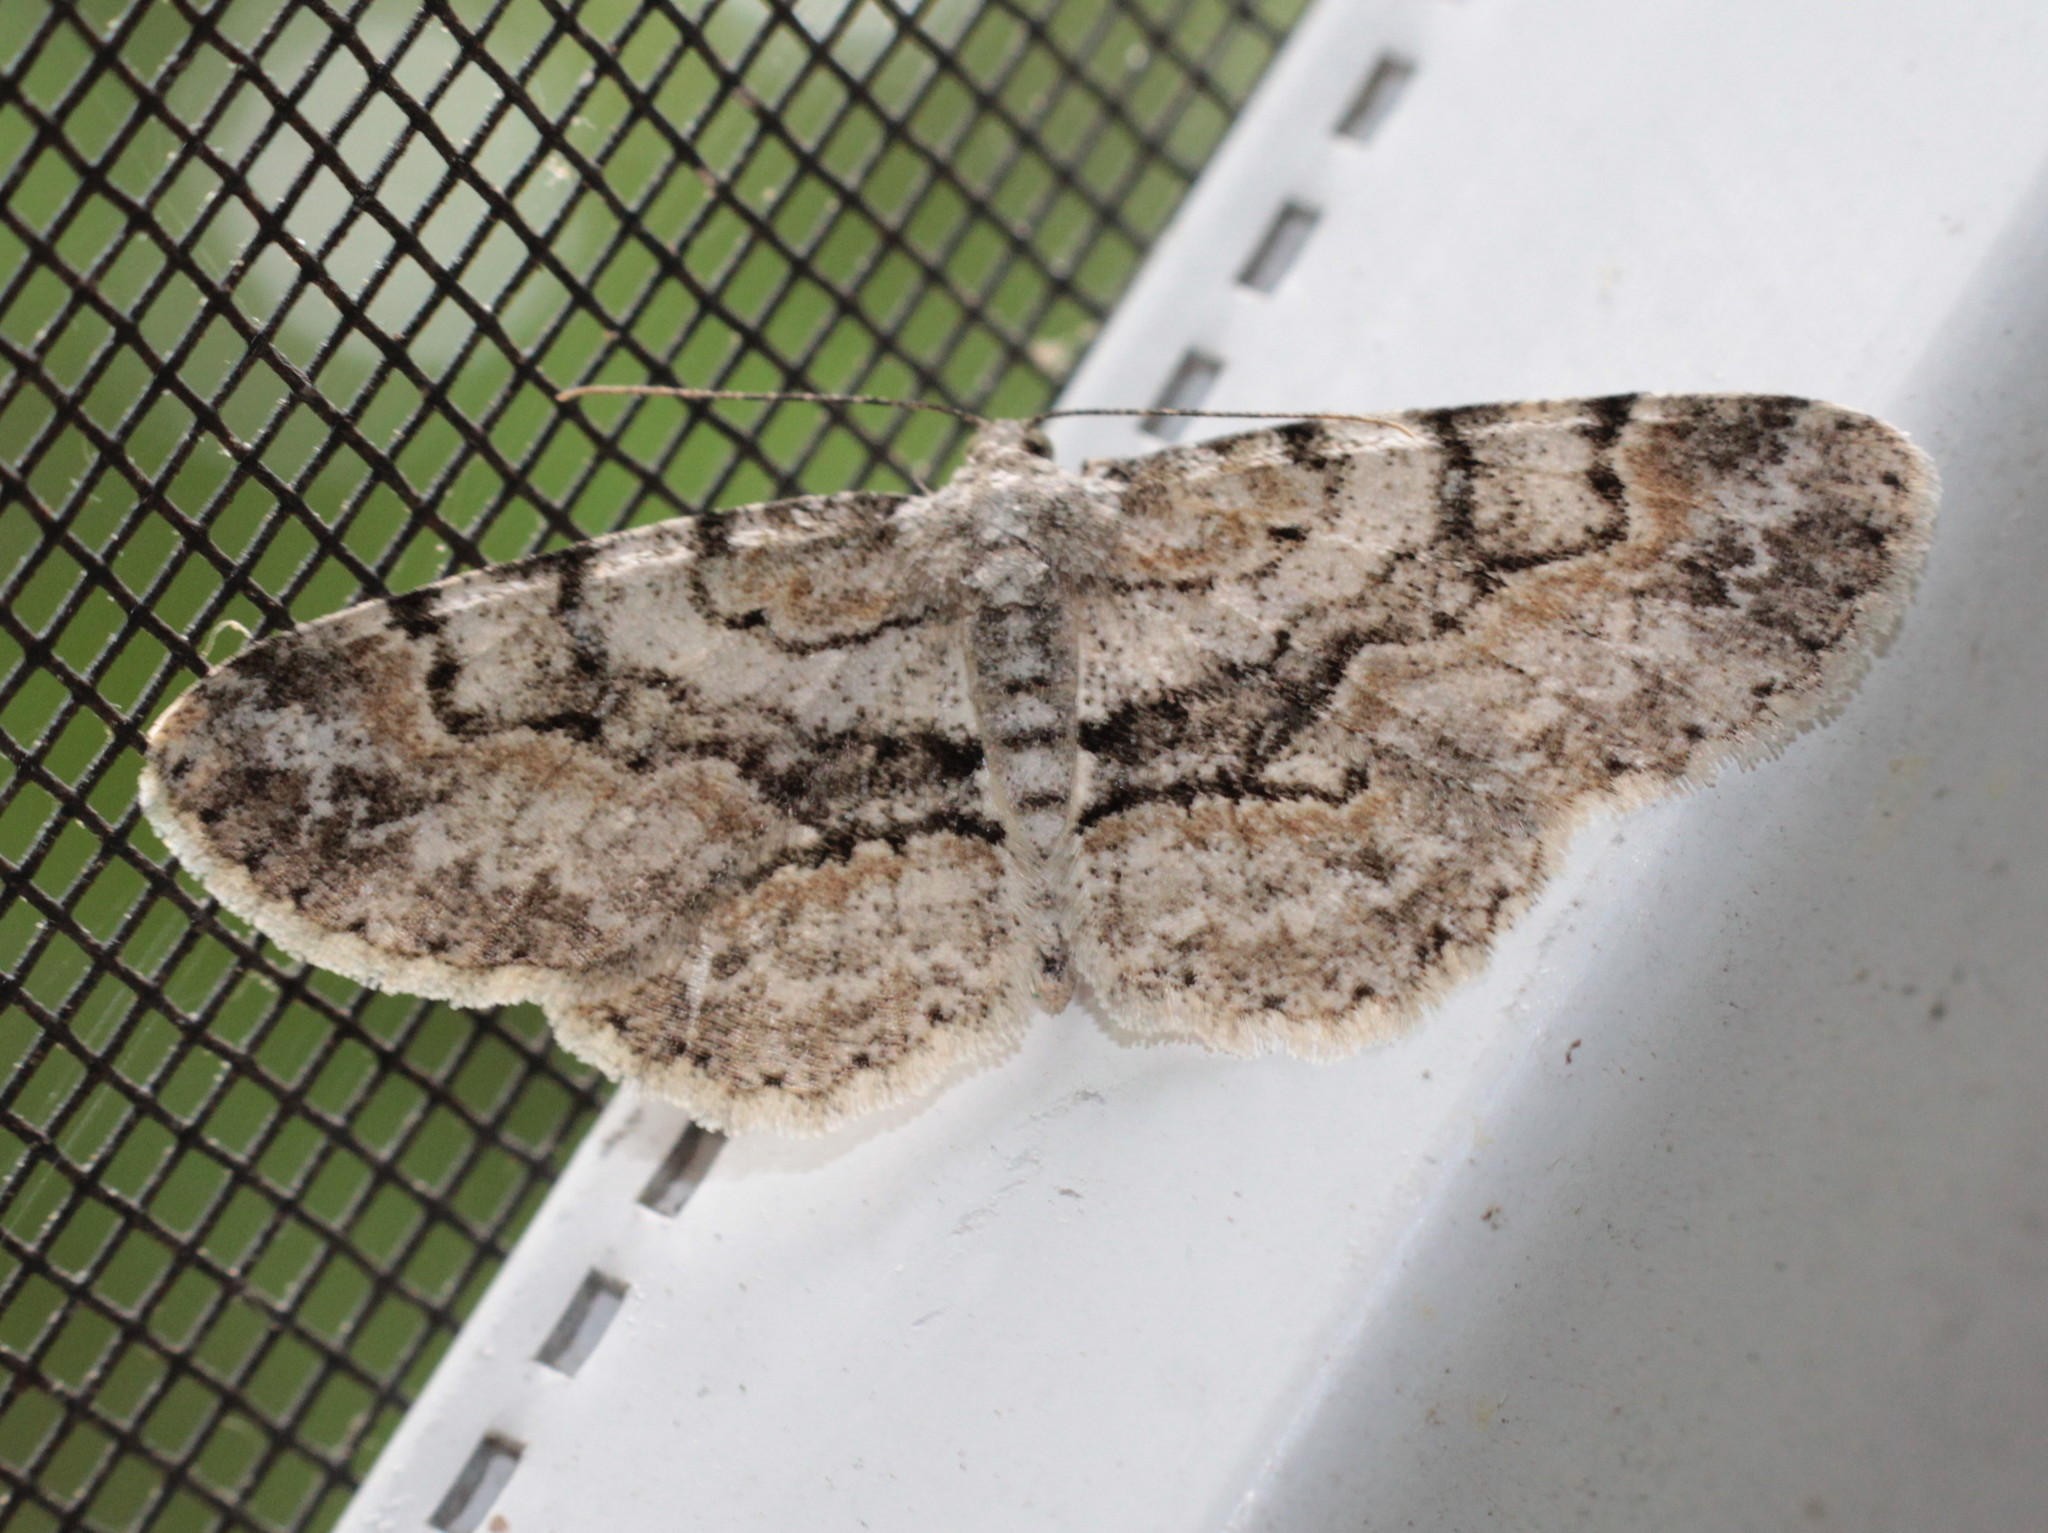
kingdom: Animalia
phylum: Arthropoda
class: Insecta
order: Lepidoptera
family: Geometridae
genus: Iridopsis
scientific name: Iridopsis ephyraria
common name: Pale-winged gray
